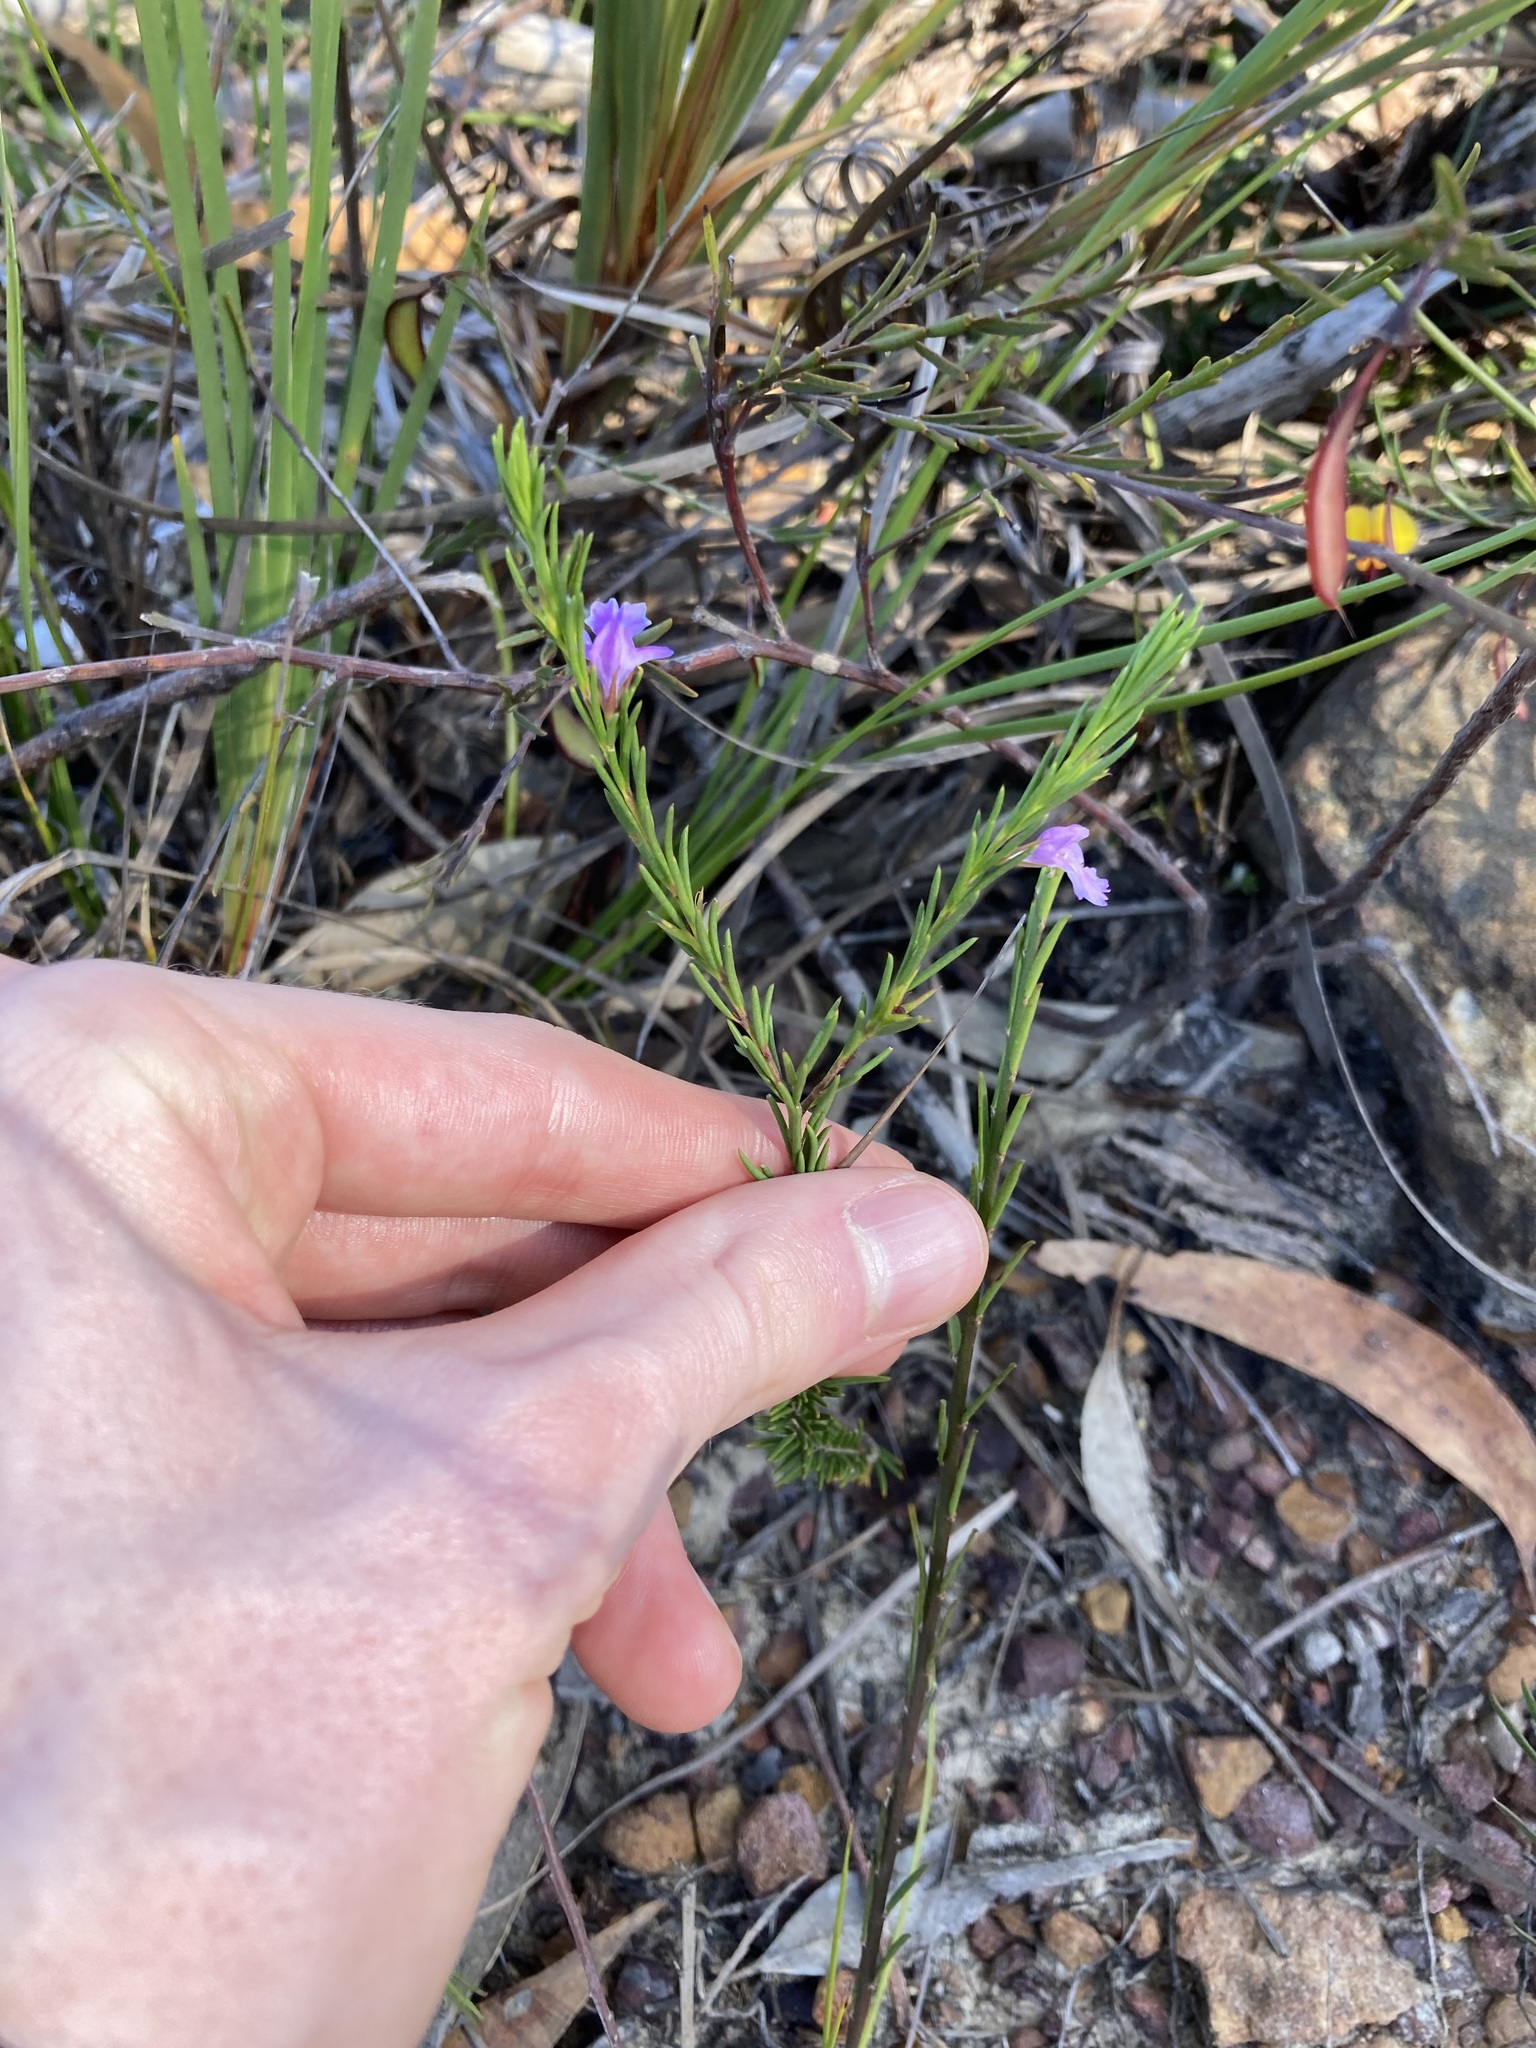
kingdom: Plantae
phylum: Tracheophyta
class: Magnoliopsida
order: Lamiales
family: Lamiaceae
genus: Hemigenia
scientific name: Hemigenia purpurea
